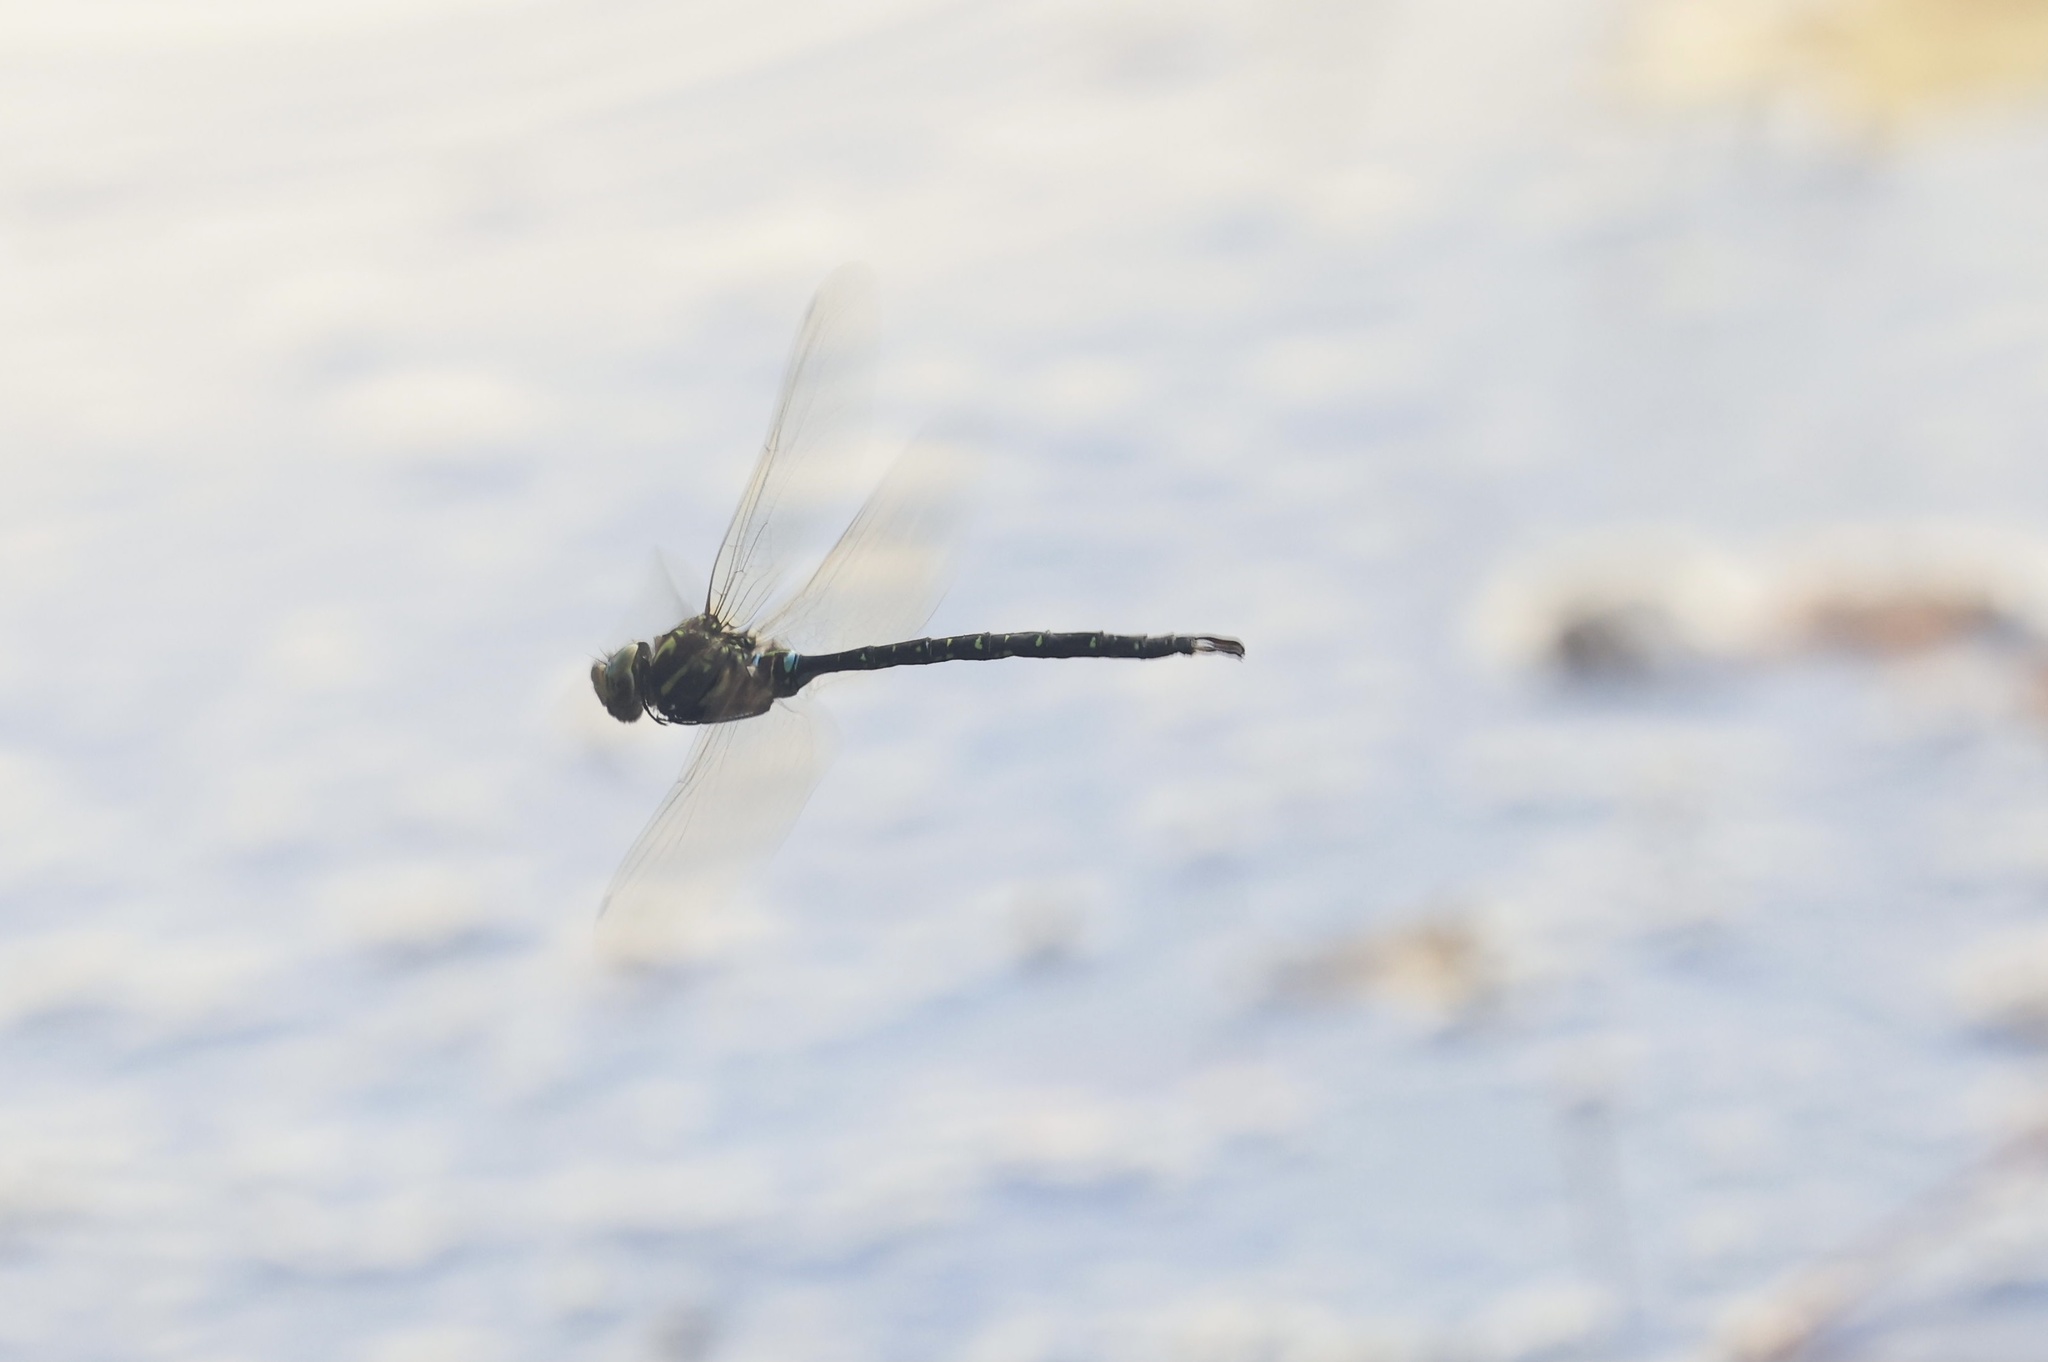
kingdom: Animalia
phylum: Arthropoda
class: Insecta
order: Odonata
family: Aeshnidae
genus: Aeshna
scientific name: Aeshna umbrosa
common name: Shadow darner
